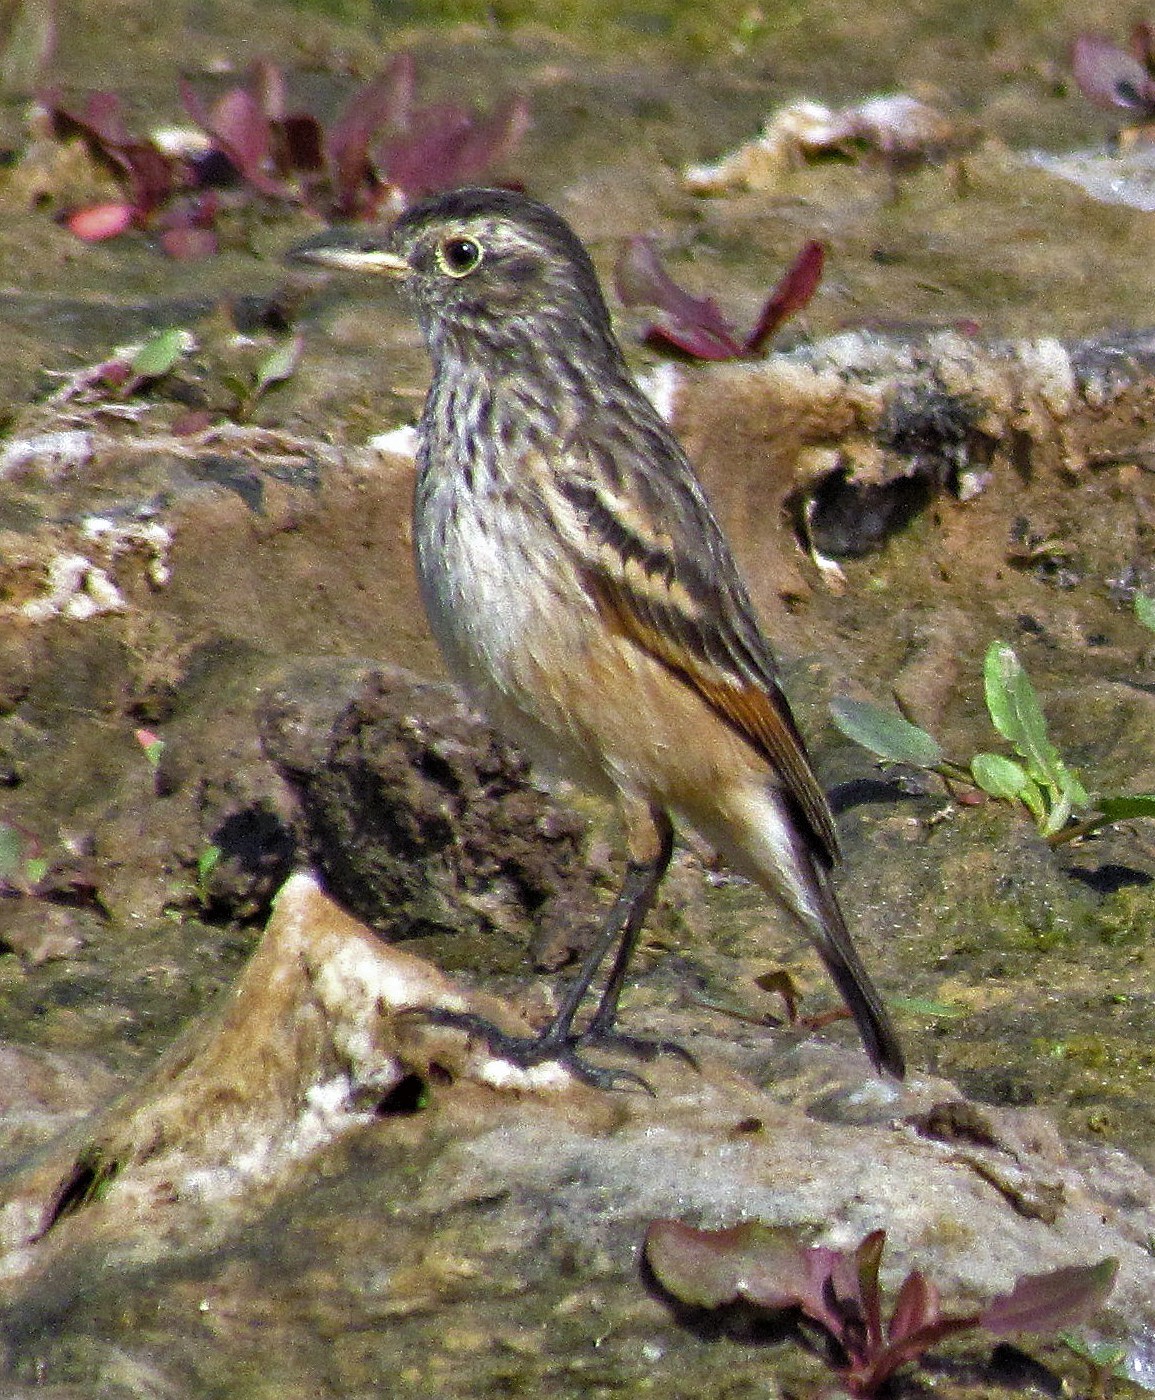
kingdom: Animalia
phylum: Chordata
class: Aves
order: Passeriformes
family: Tyrannidae
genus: Hymenops
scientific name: Hymenops perspicillatus
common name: Spectacled tyrant
